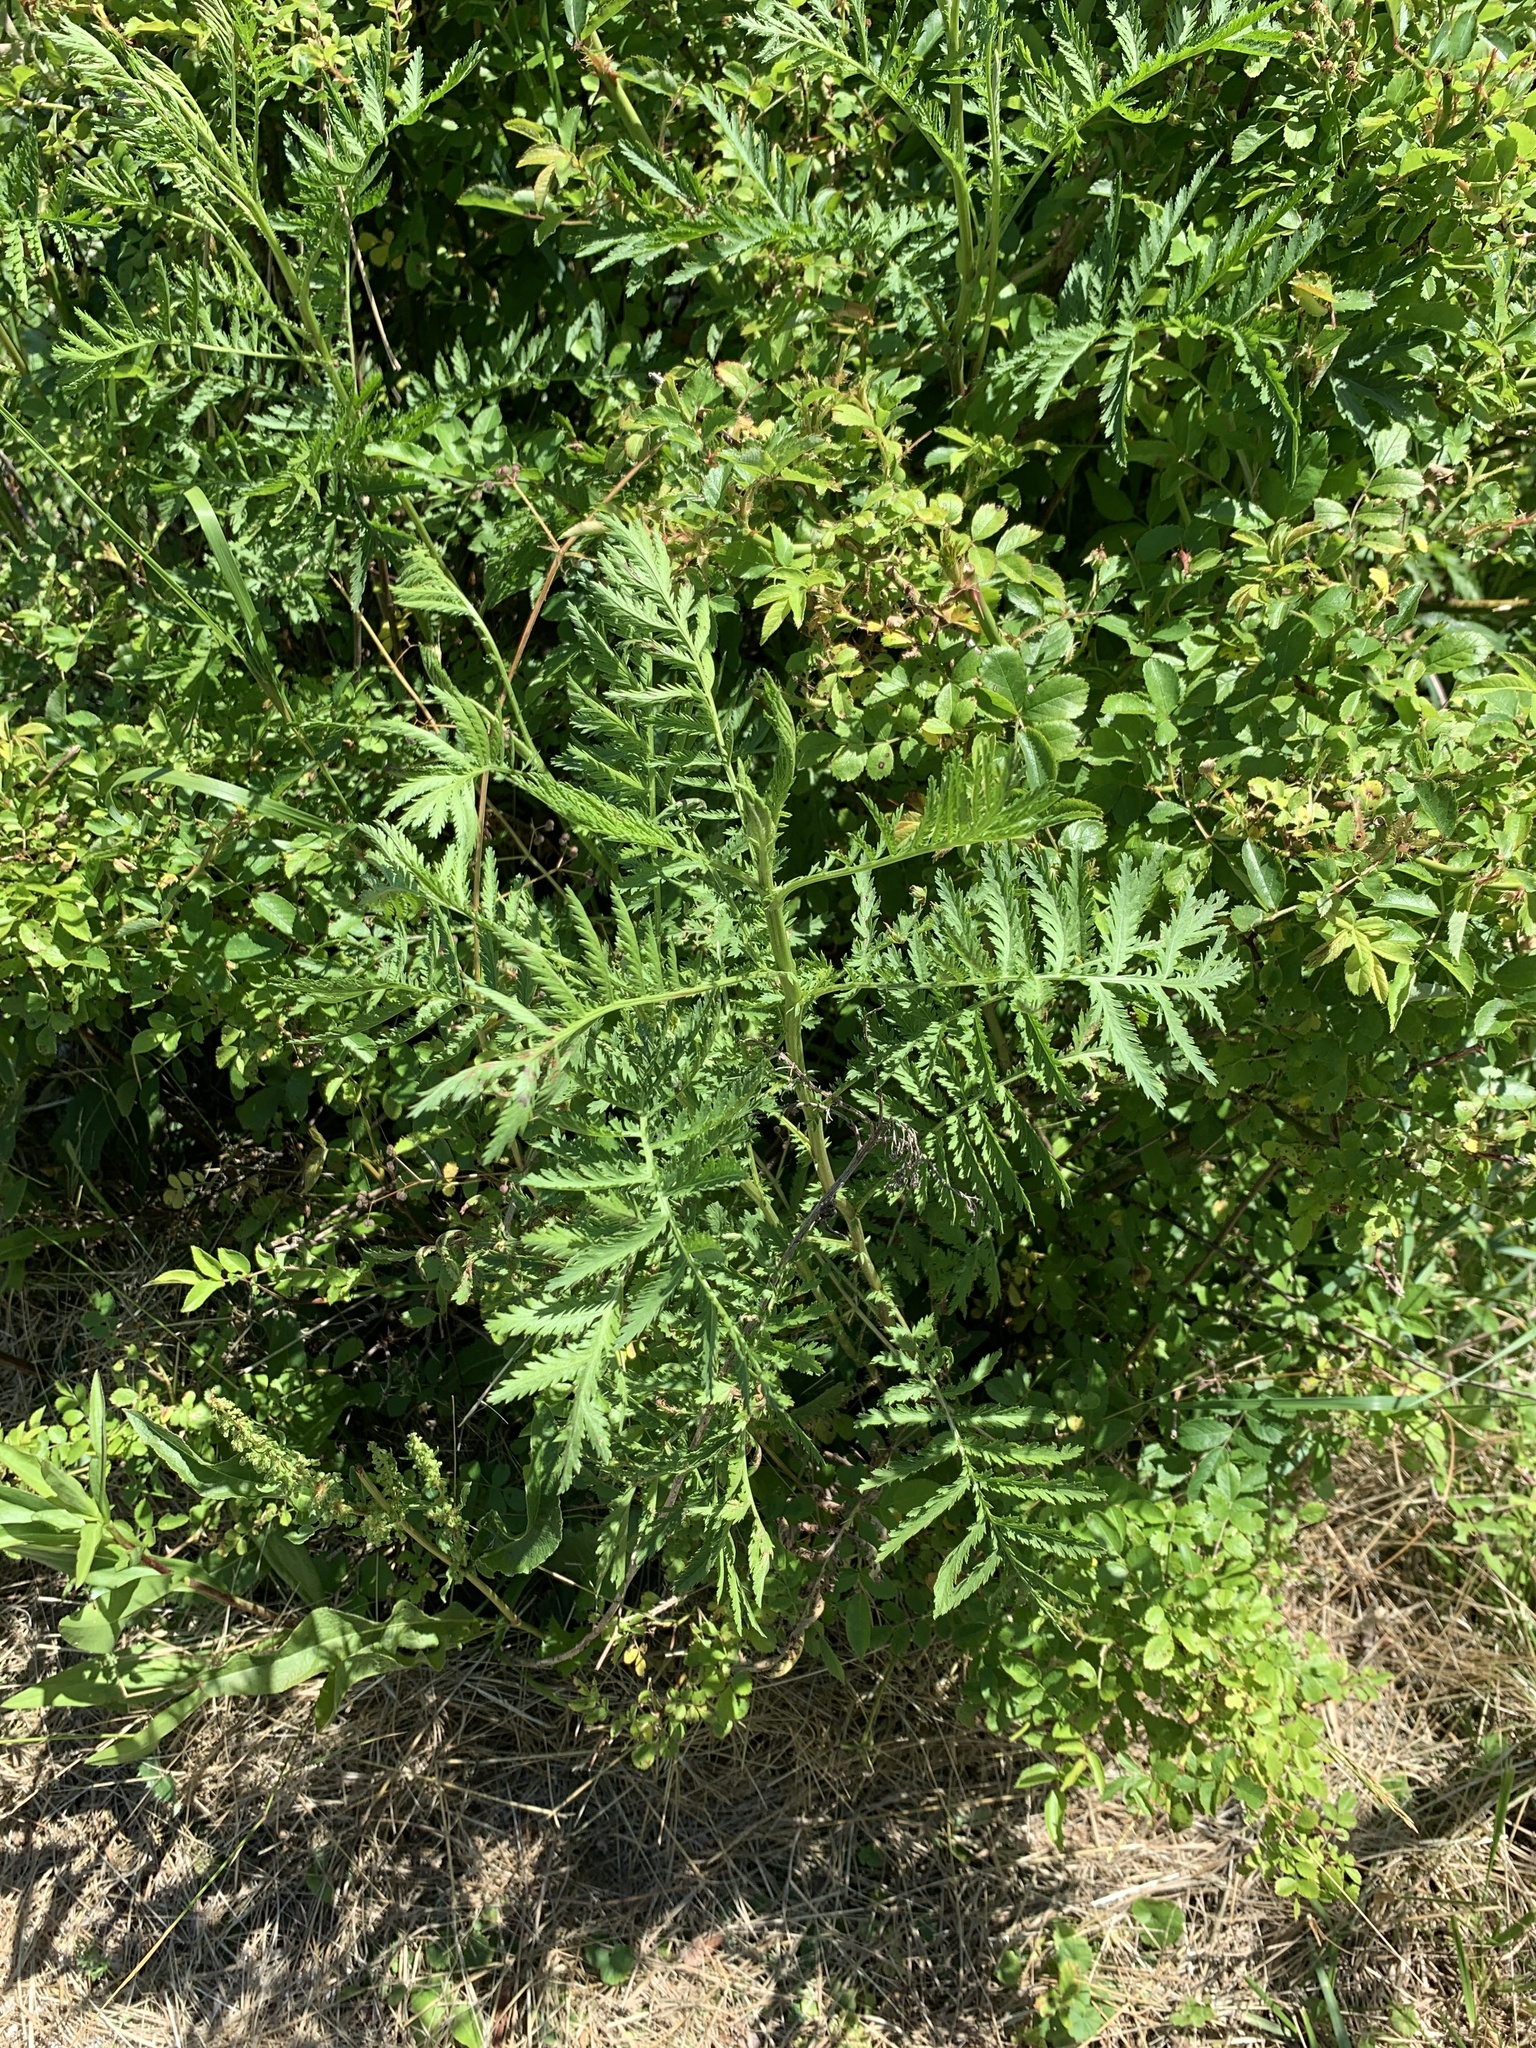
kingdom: Plantae
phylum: Tracheophyta
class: Magnoliopsida
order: Asterales
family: Asteraceae
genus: Tanacetum
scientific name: Tanacetum vulgare
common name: Common tansy
